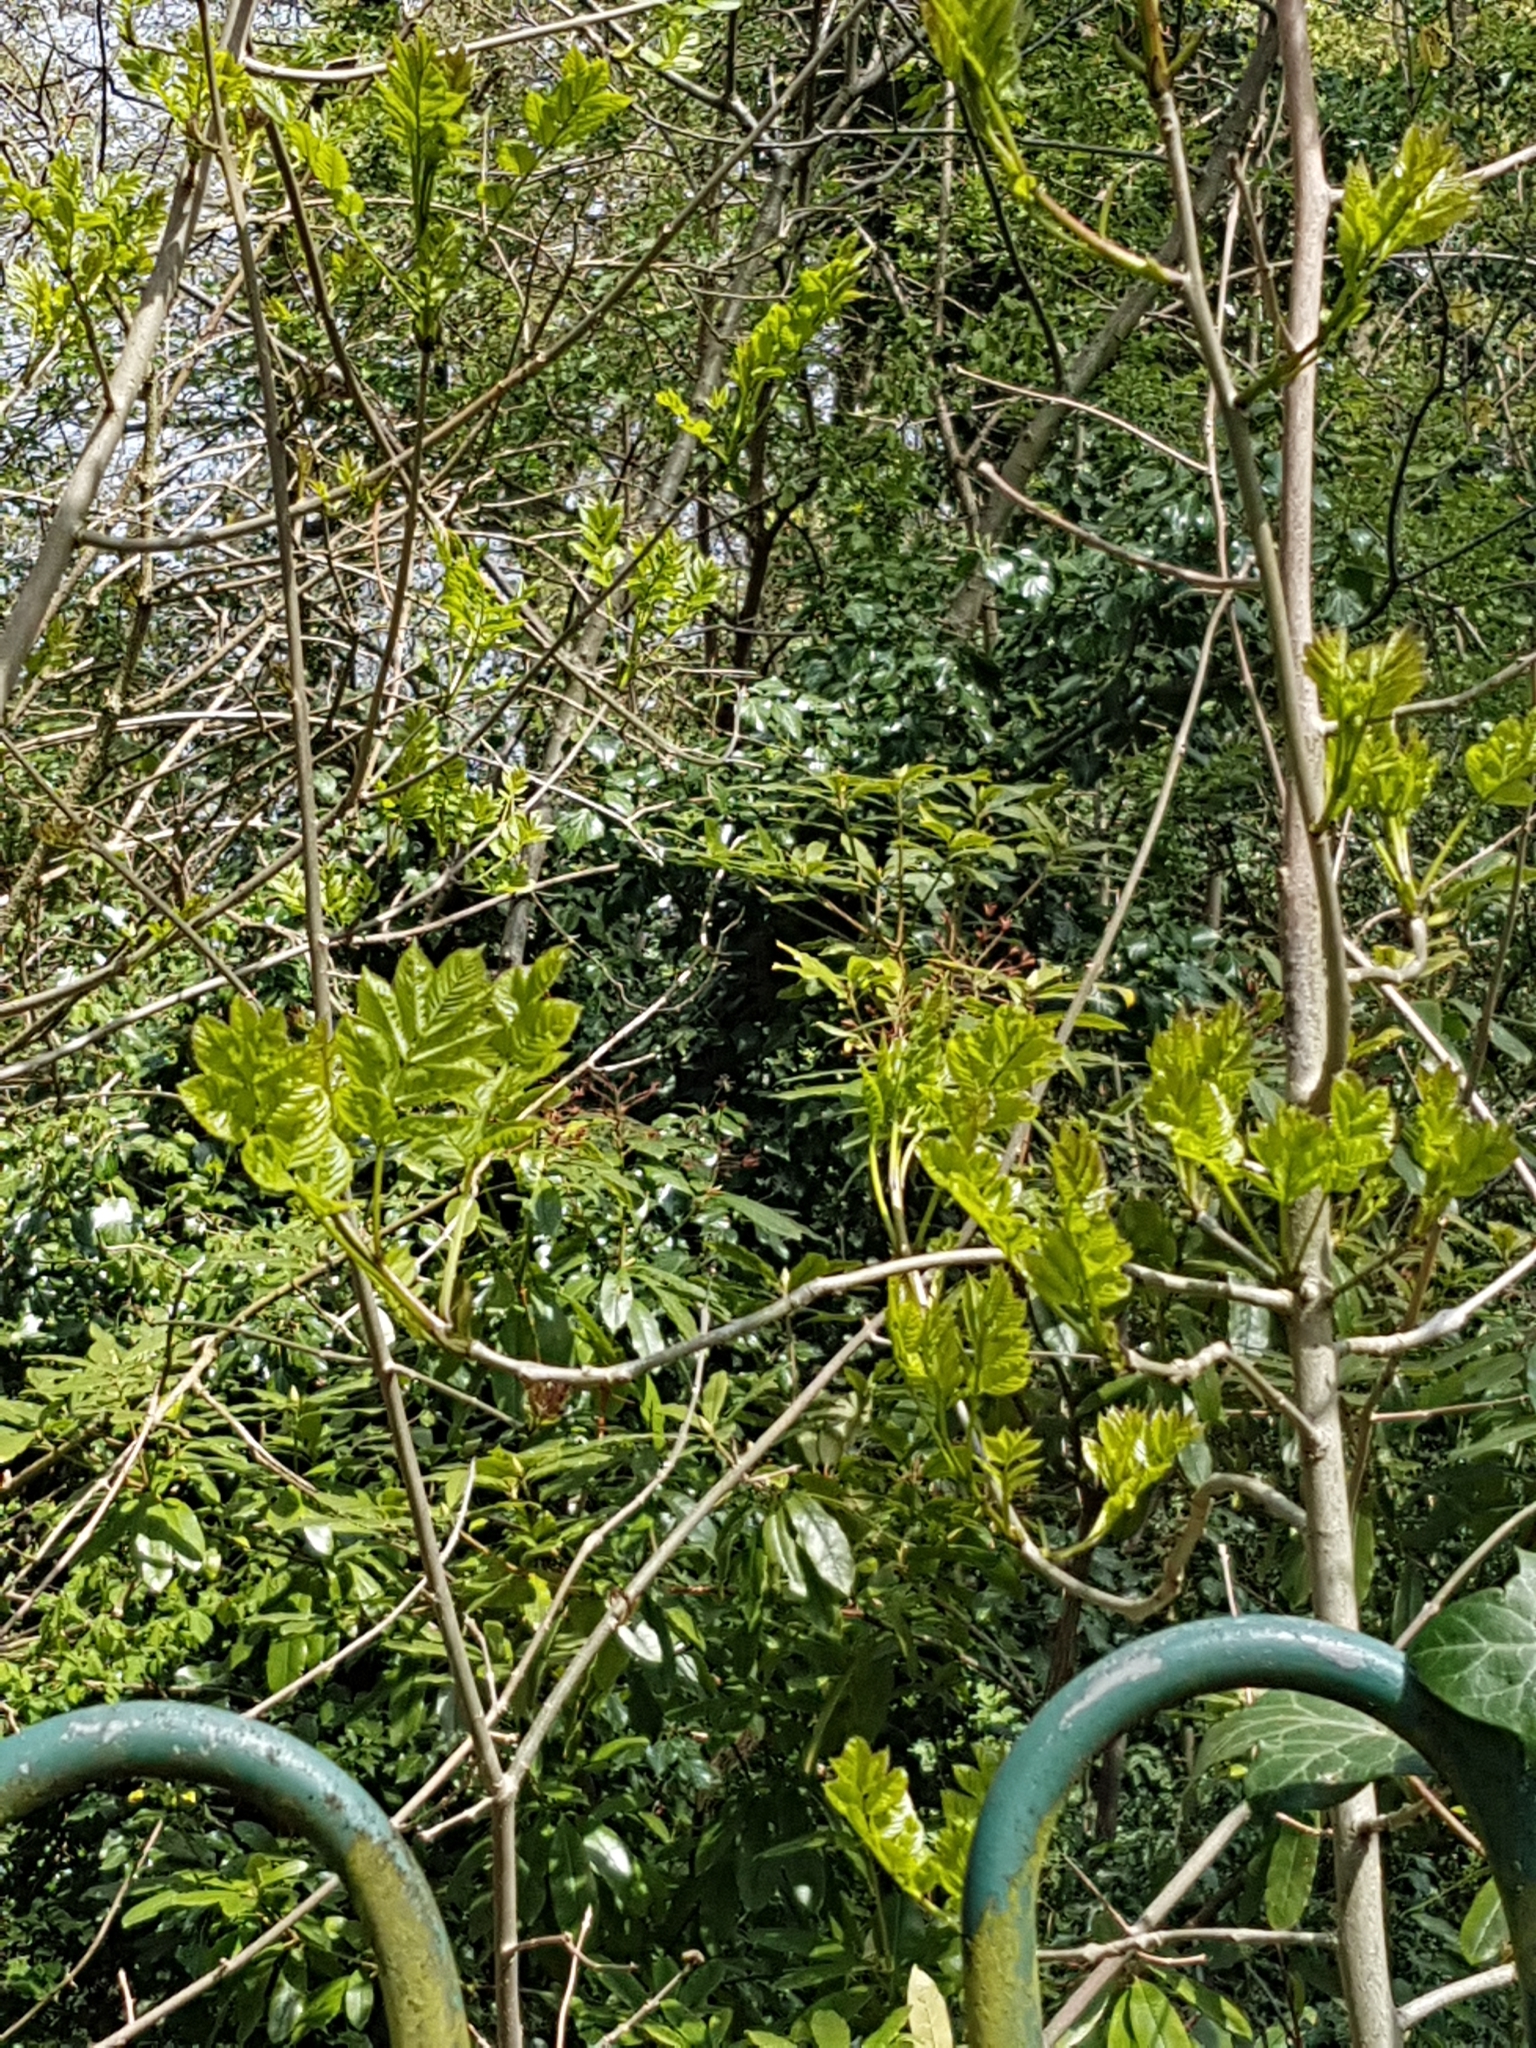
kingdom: Plantae
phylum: Tracheophyta
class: Magnoliopsida
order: Lamiales
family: Oleaceae
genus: Fraxinus
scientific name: Fraxinus excelsior
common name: European ash
